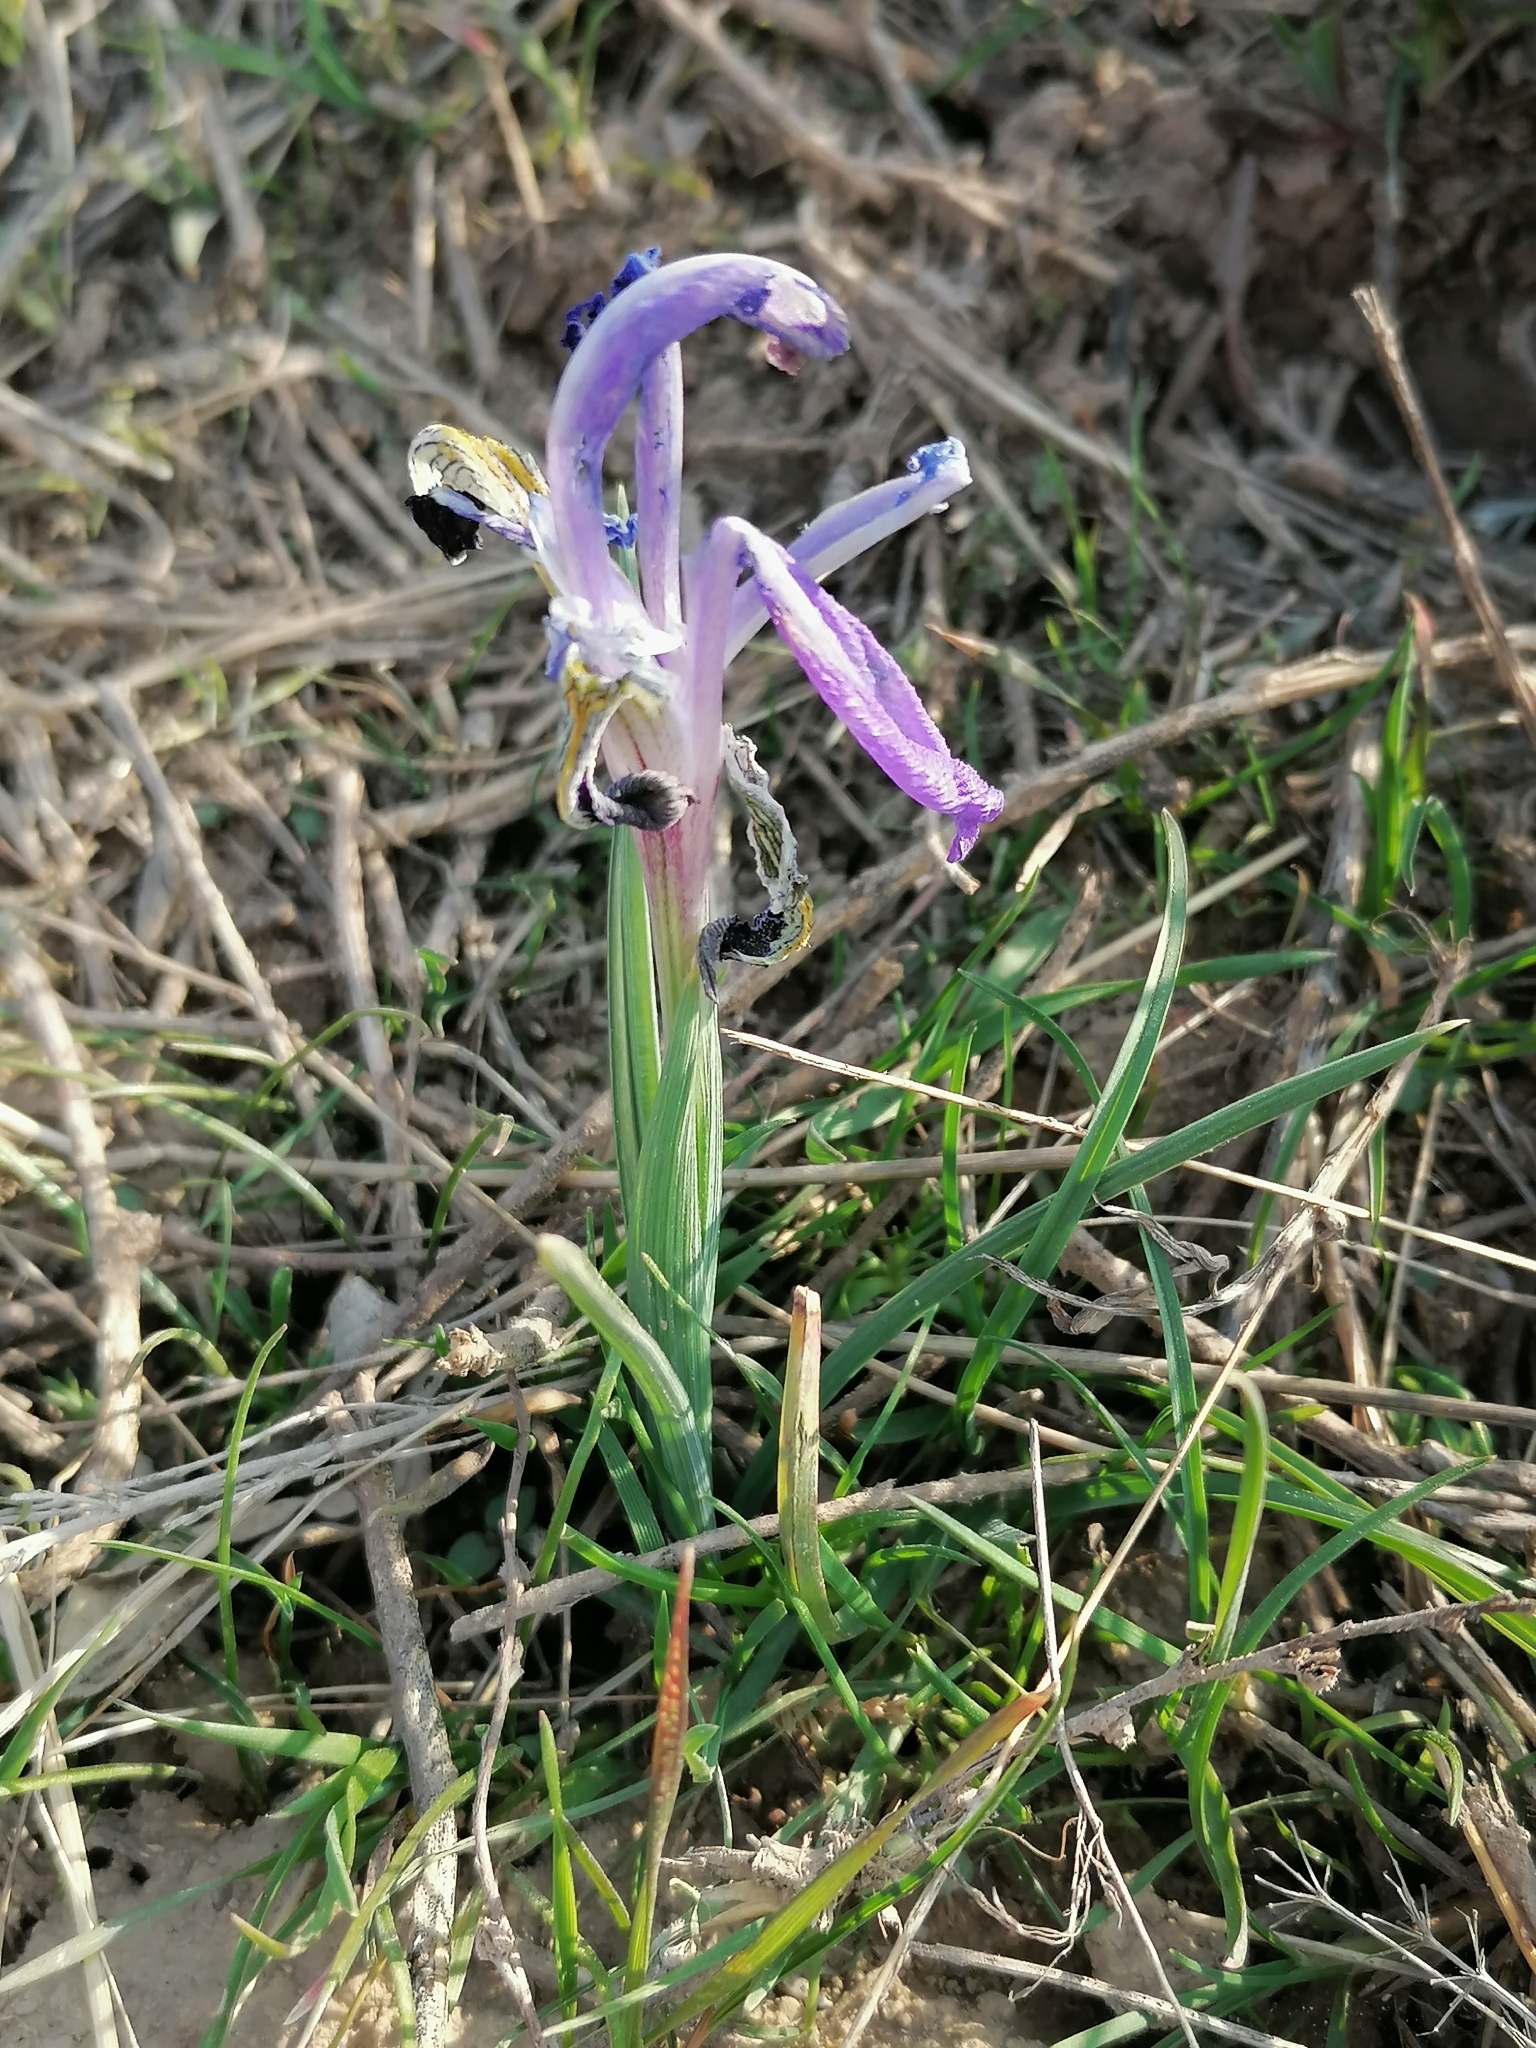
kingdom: Plantae
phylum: Tracheophyta
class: Liliopsida
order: Asparagales
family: Iridaceae
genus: Iris
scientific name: Iris kolpakowskiana
